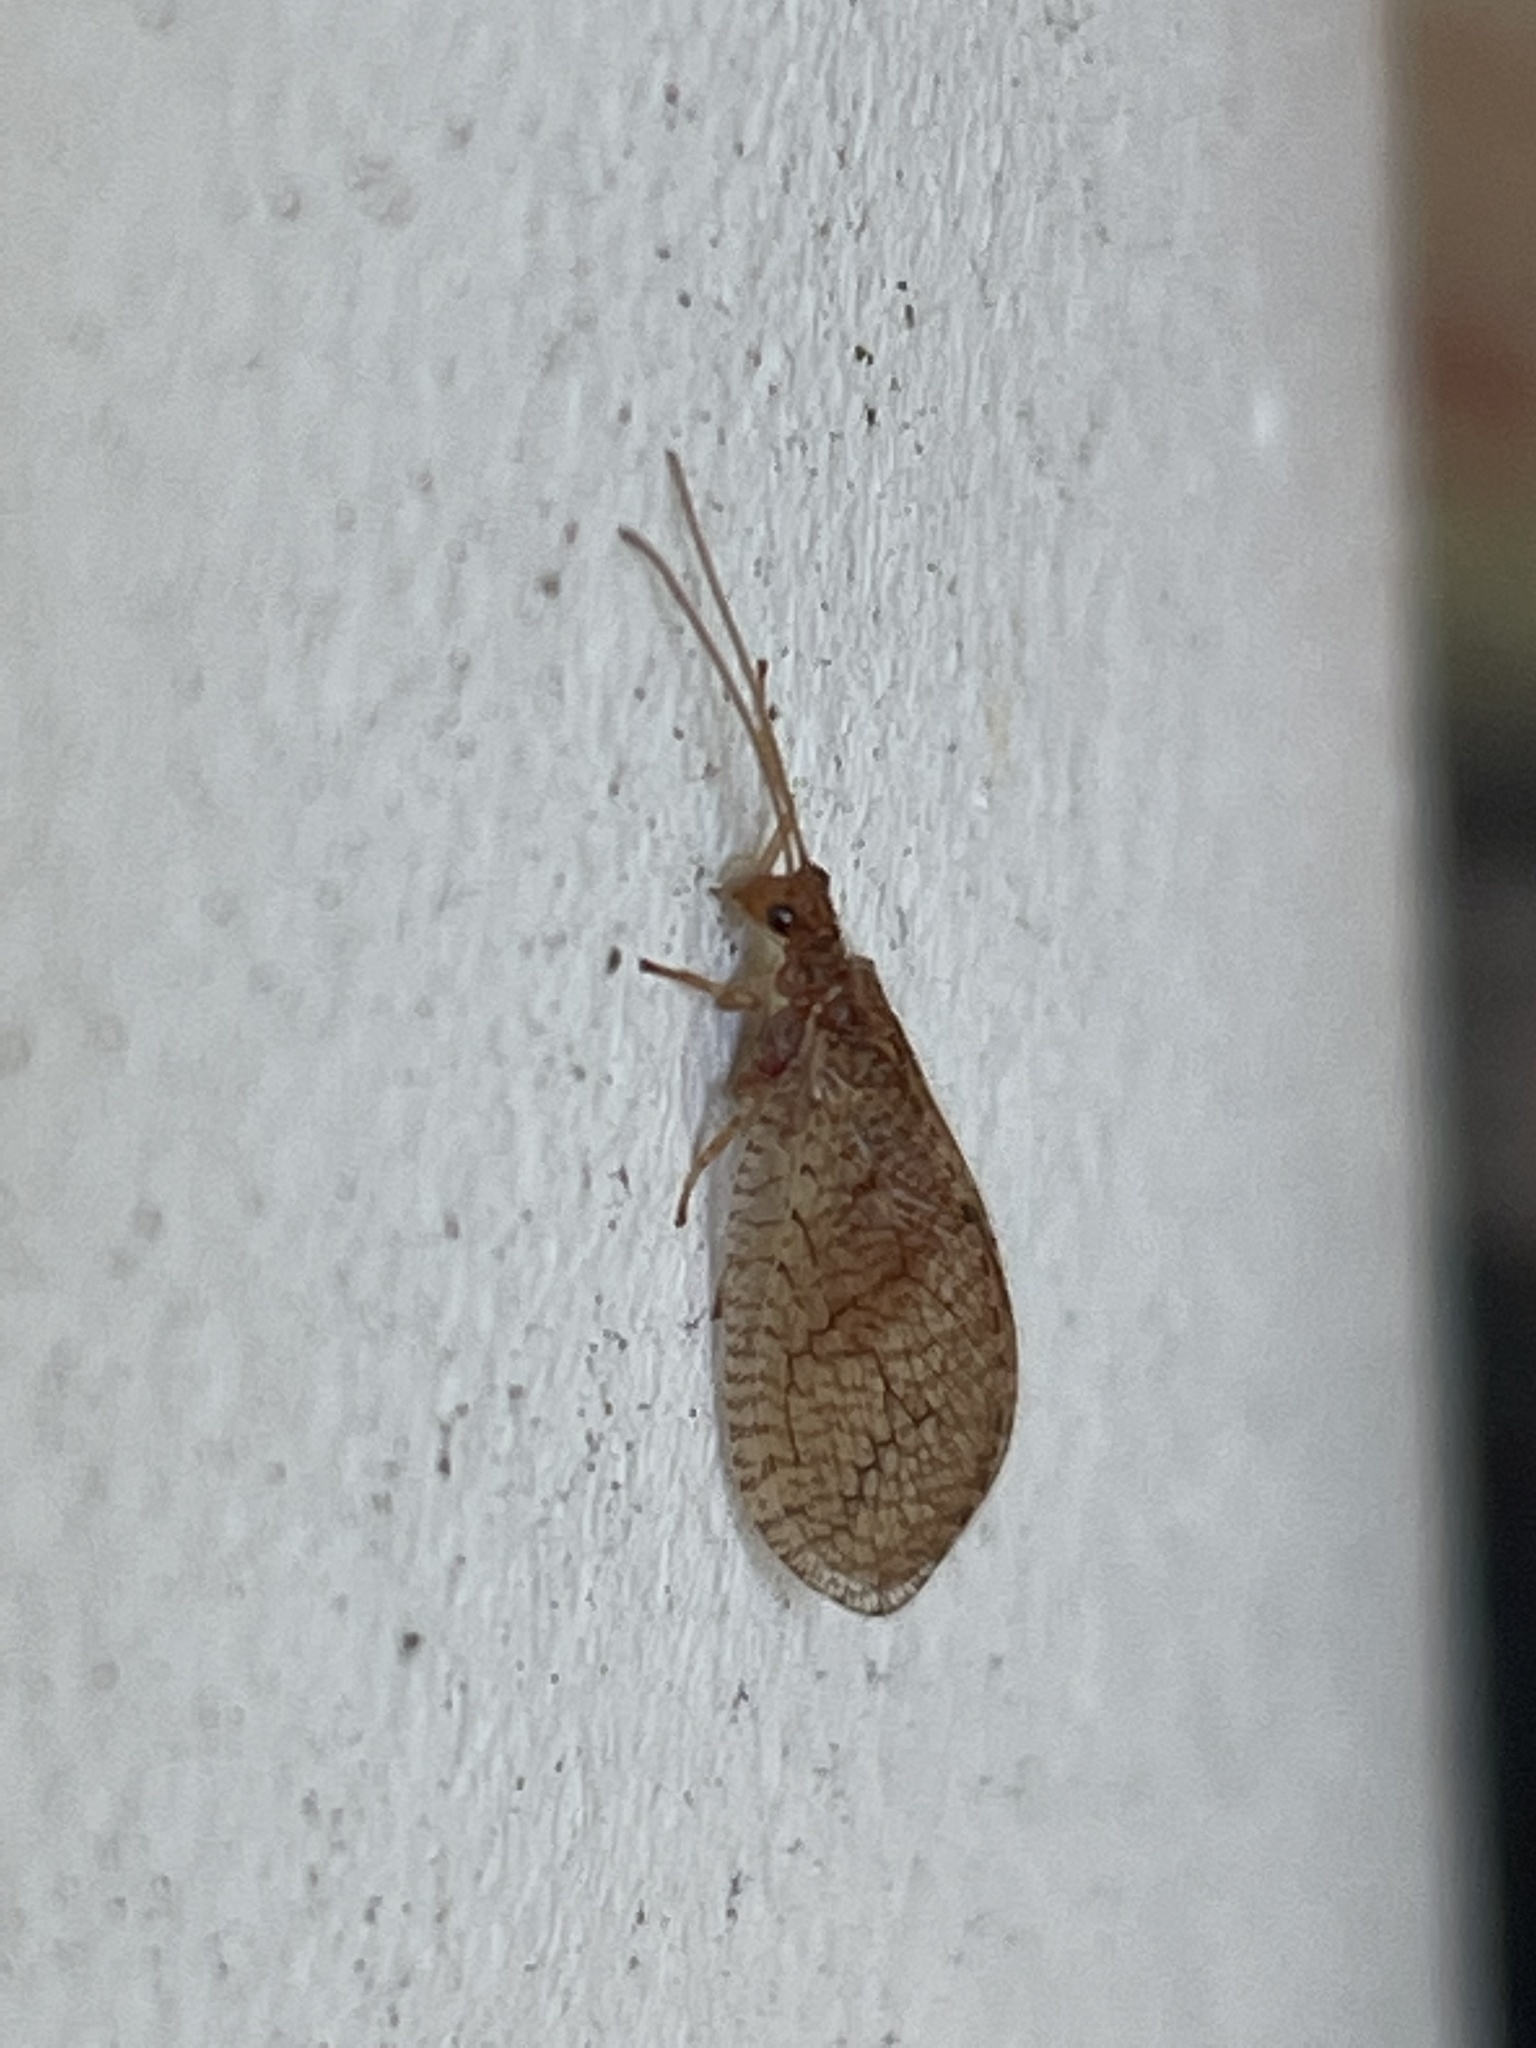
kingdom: Animalia
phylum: Arthropoda
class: Insecta
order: Neuroptera
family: Hemerobiidae
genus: Micromus
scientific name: Micromus posticus
